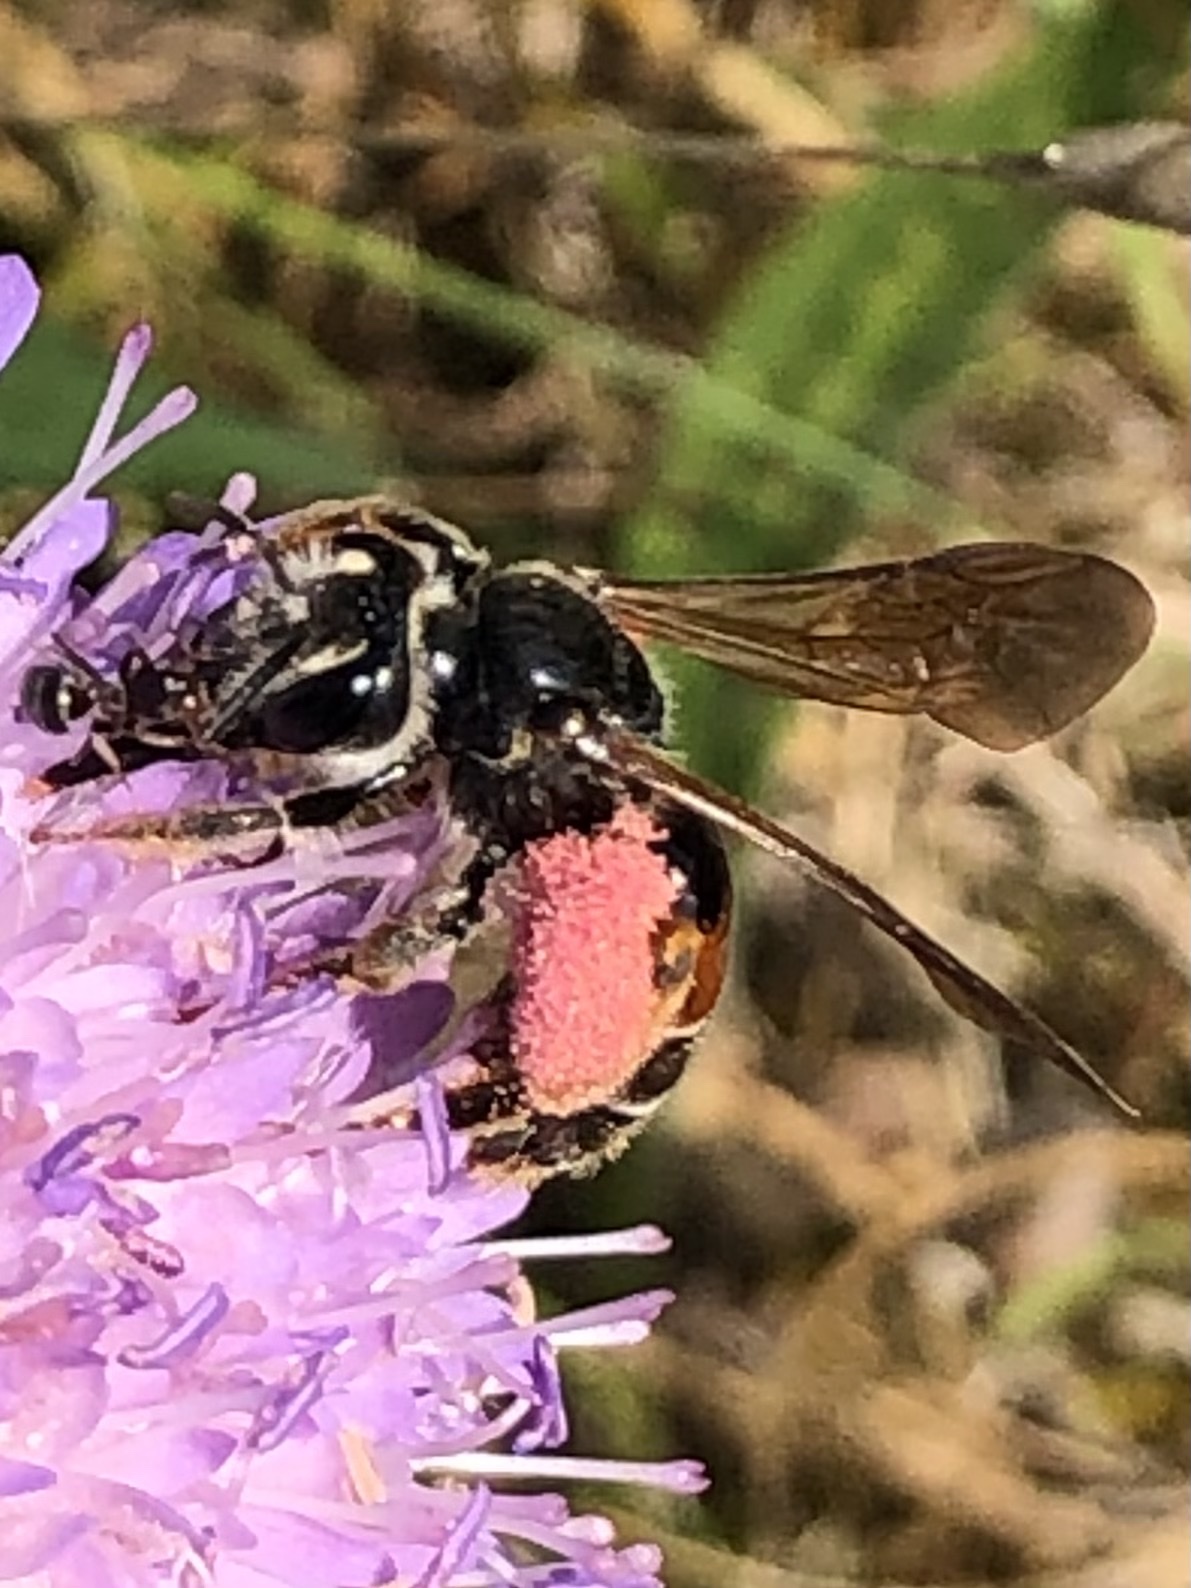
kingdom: Animalia
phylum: Arthropoda
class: Insecta
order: Hymenoptera
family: Andrenidae
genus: Andrena
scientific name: Andrena hattorfiana
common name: Large scabious mining bee
